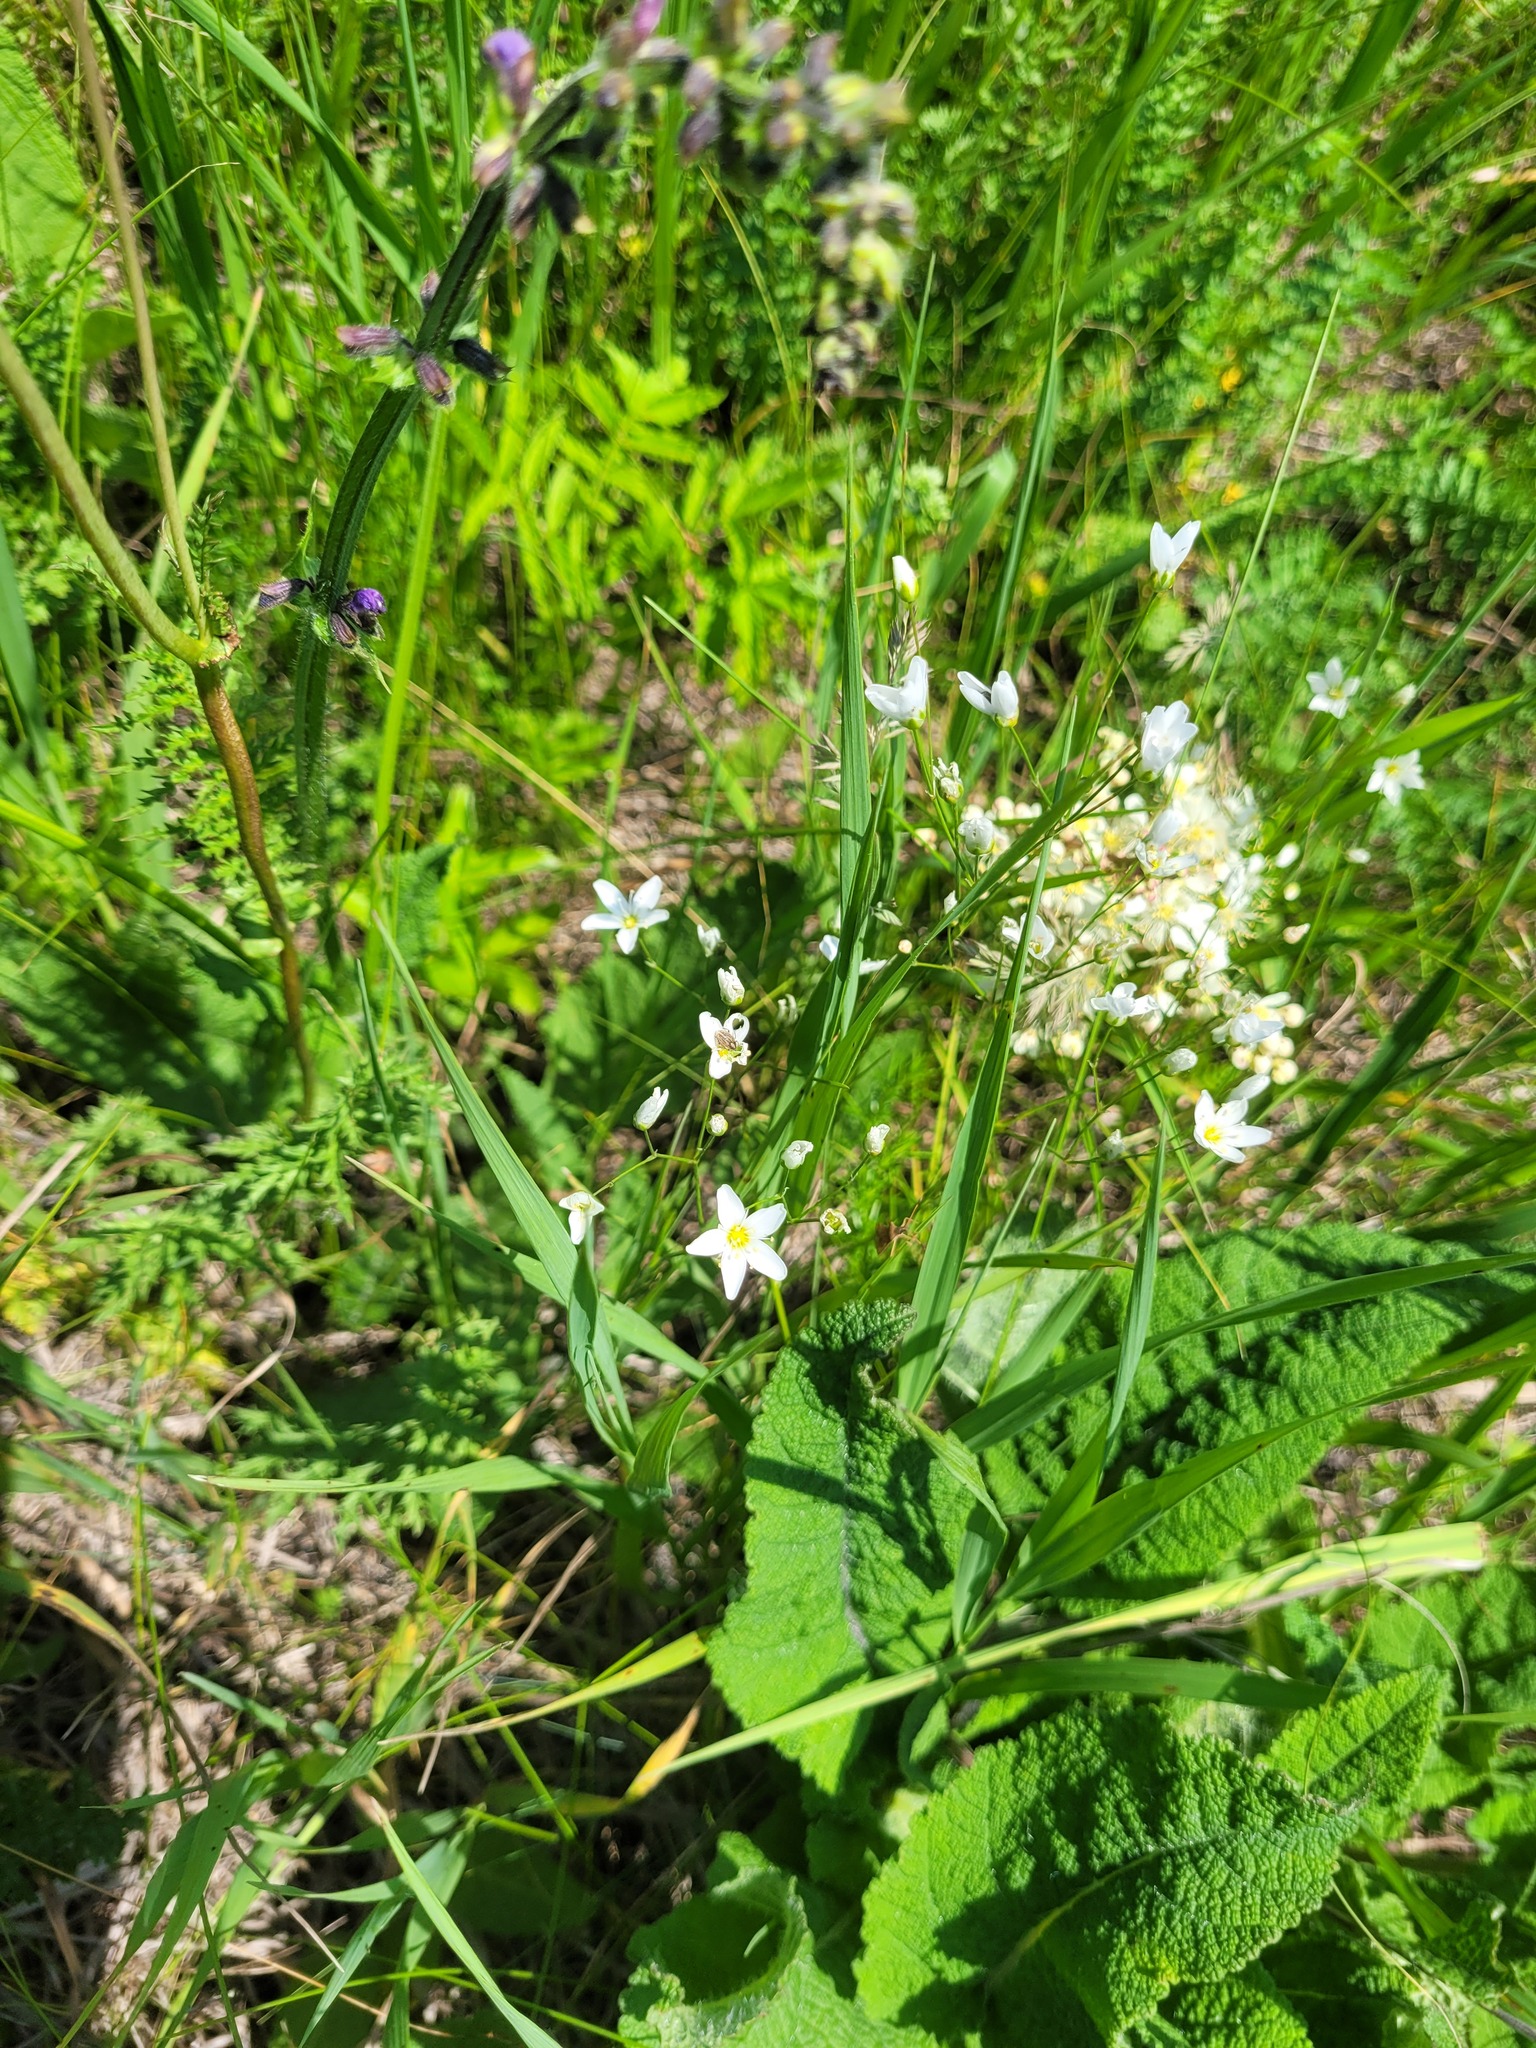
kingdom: Plantae
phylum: Tracheophyta
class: Magnoliopsida
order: Caryophyllales
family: Caryophyllaceae
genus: Eremogone
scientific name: Eremogone saxatilis
